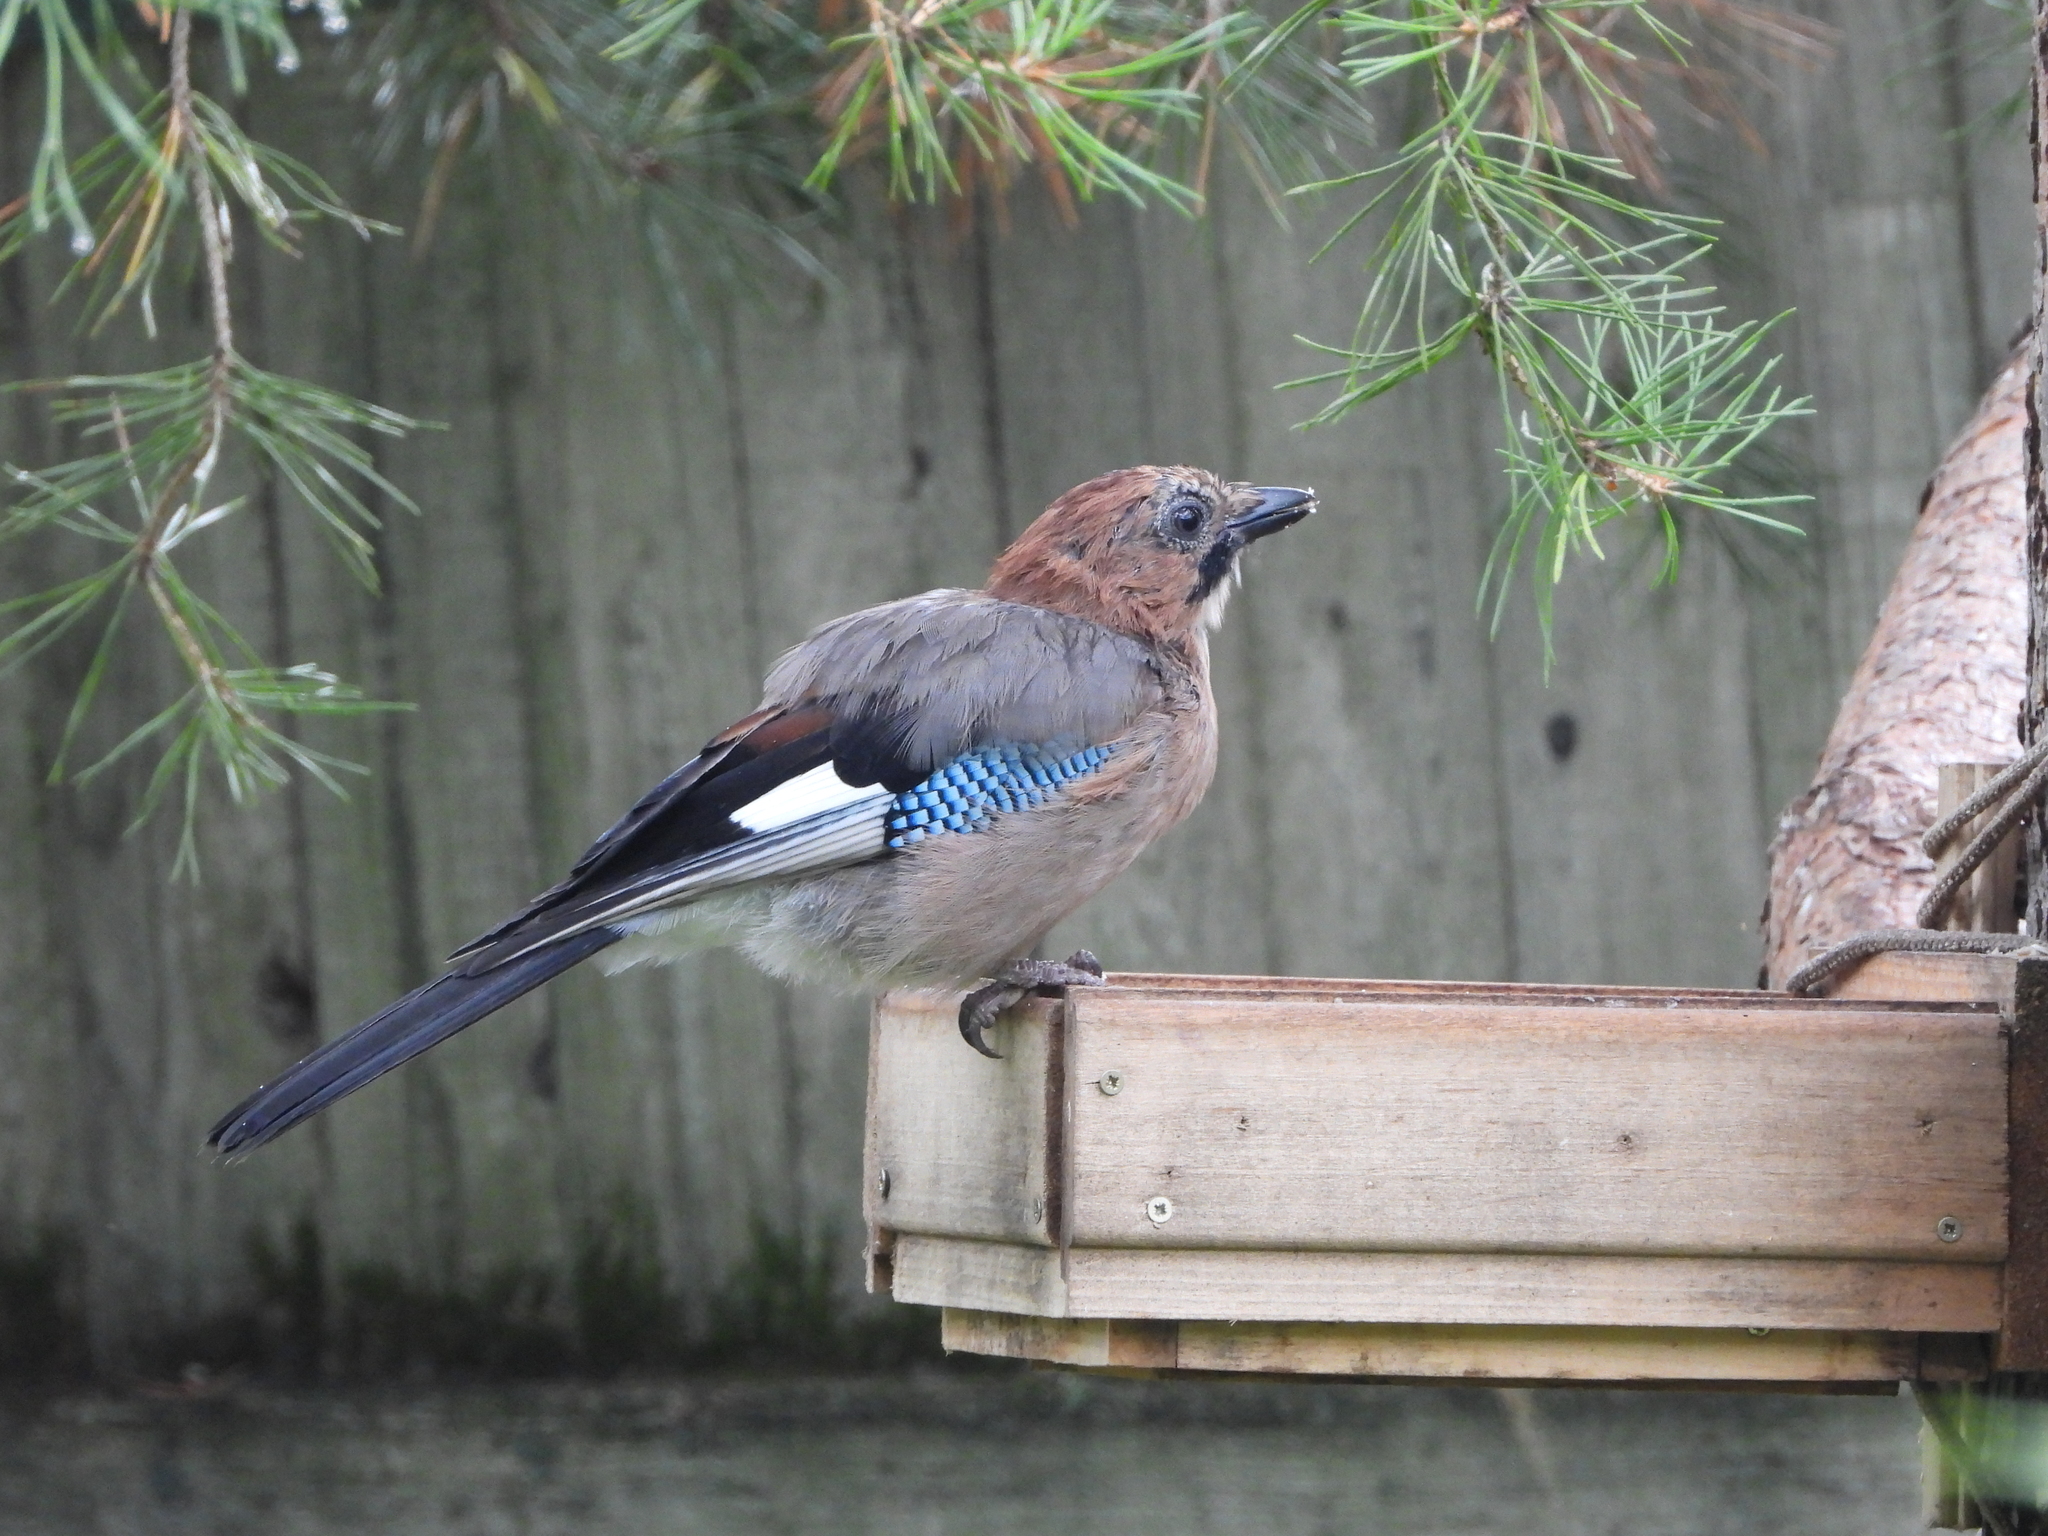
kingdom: Animalia
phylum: Chordata
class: Aves
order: Passeriformes
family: Corvidae
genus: Garrulus
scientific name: Garrulus glandarius
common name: Eurasian jay
